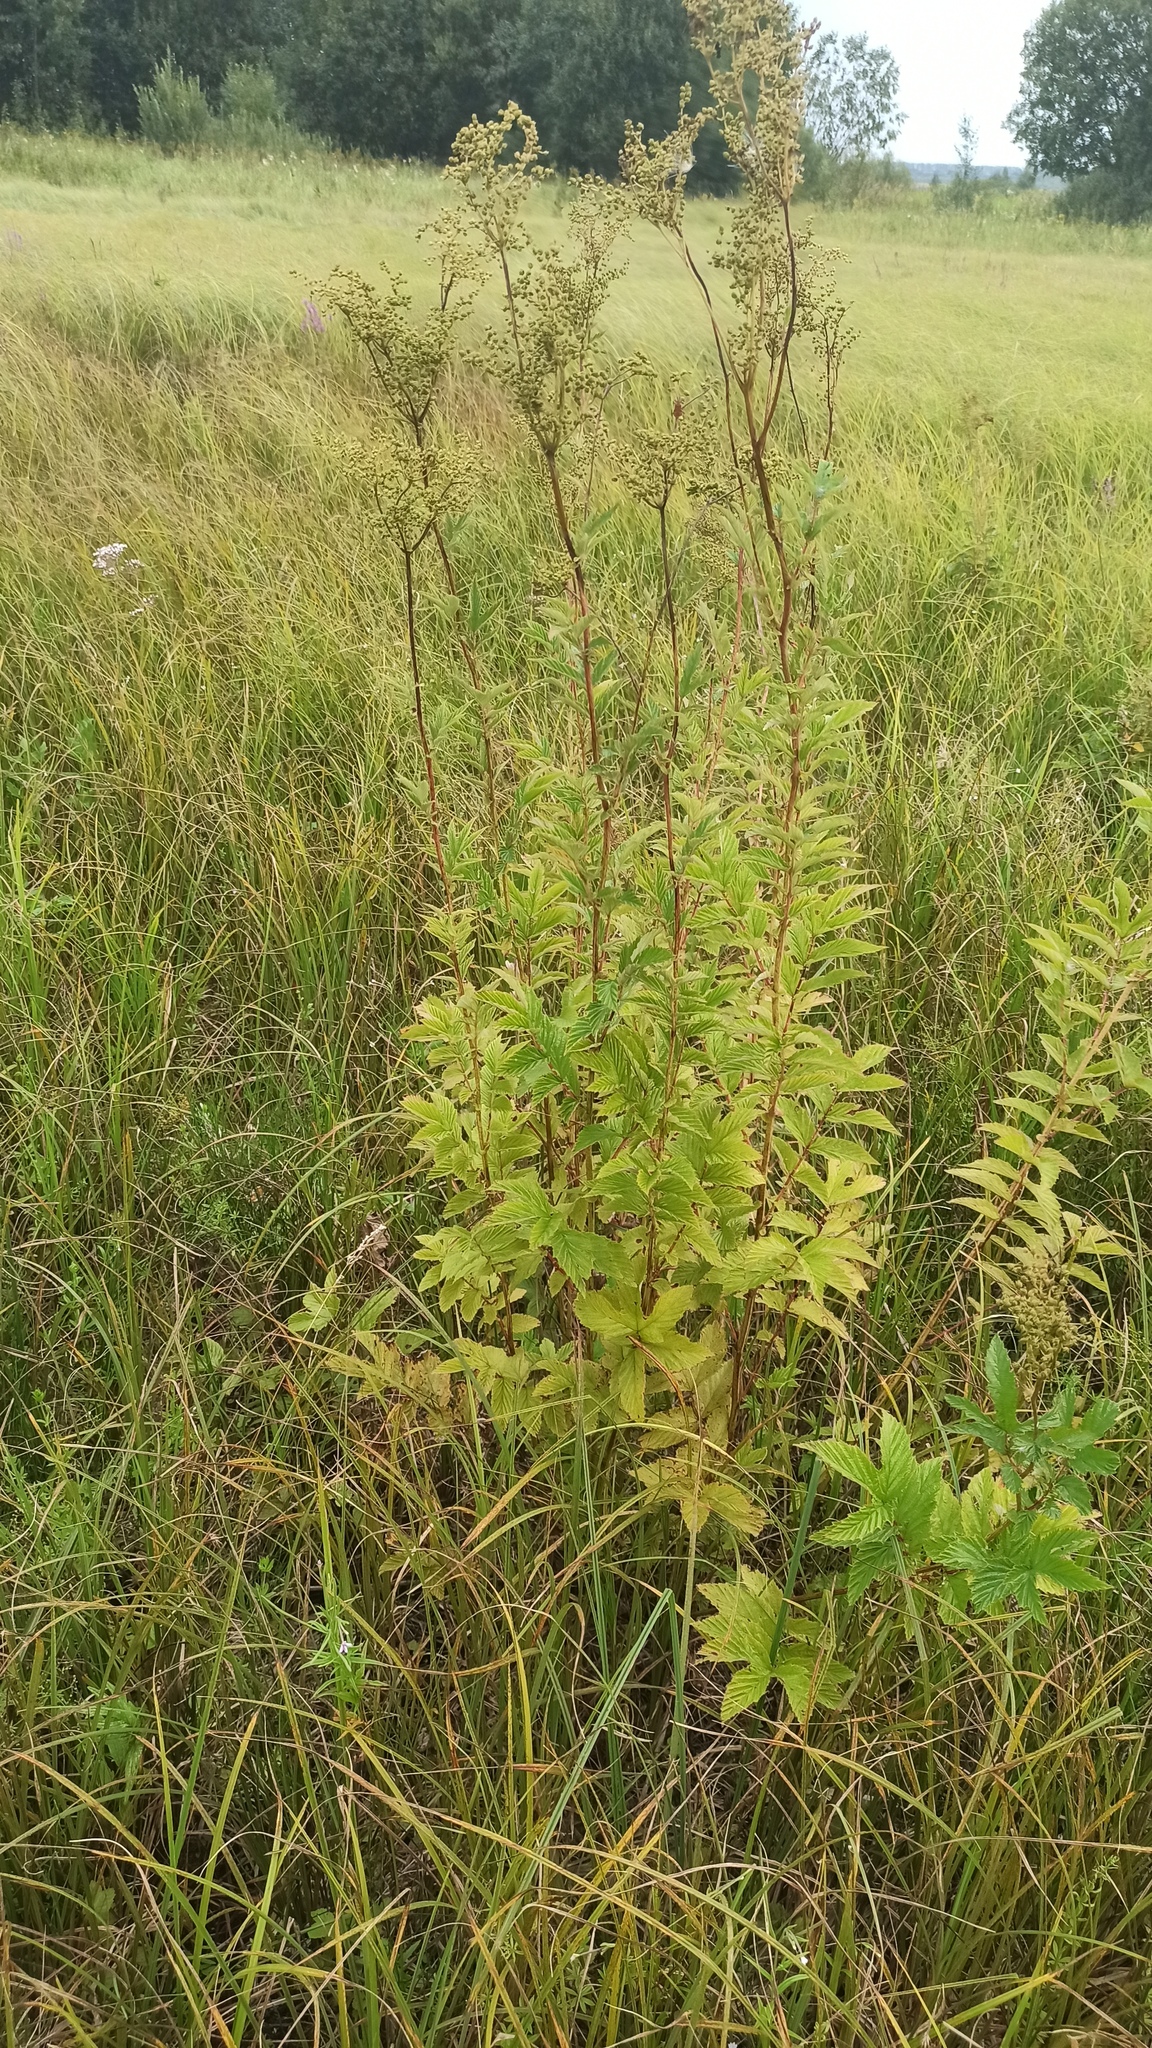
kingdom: Plantae
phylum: Tracheophyta
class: Magnoliopsida
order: Rosales
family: Rosaceae
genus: Filipendula
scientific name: Filipendula ulmaria
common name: Meadowsweet
